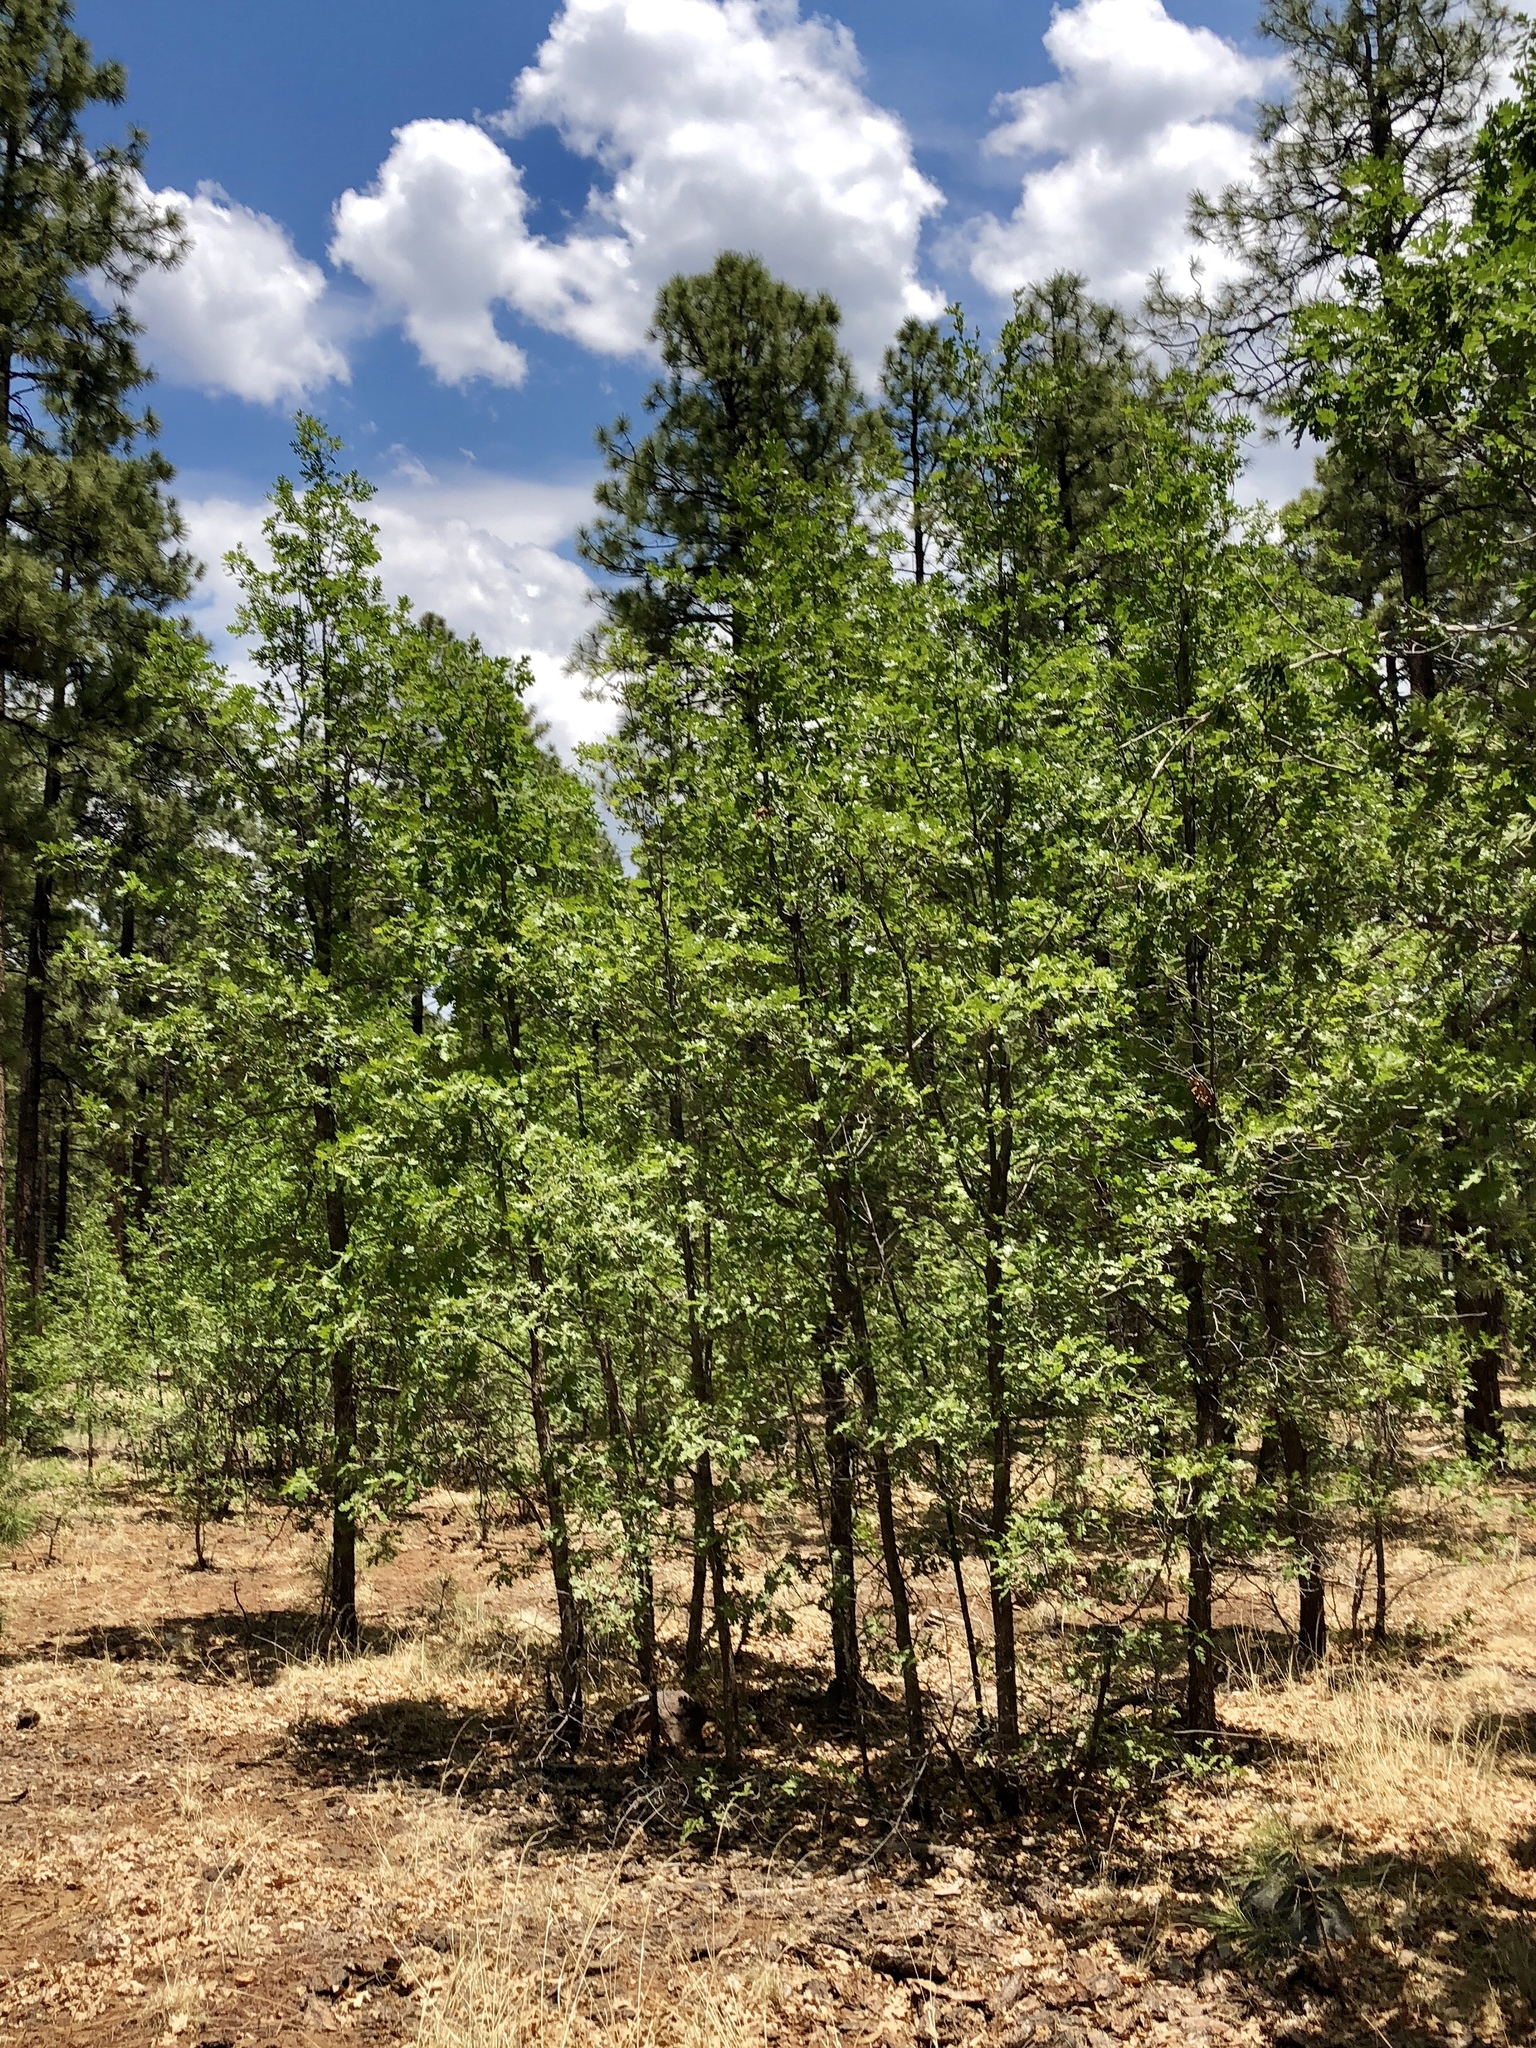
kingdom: Plantae
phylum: Tracheophyta
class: Magnoliopsida
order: Fagales
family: Fagaceae
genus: Quercus
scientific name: Quercus gambelii
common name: Gambel oak
